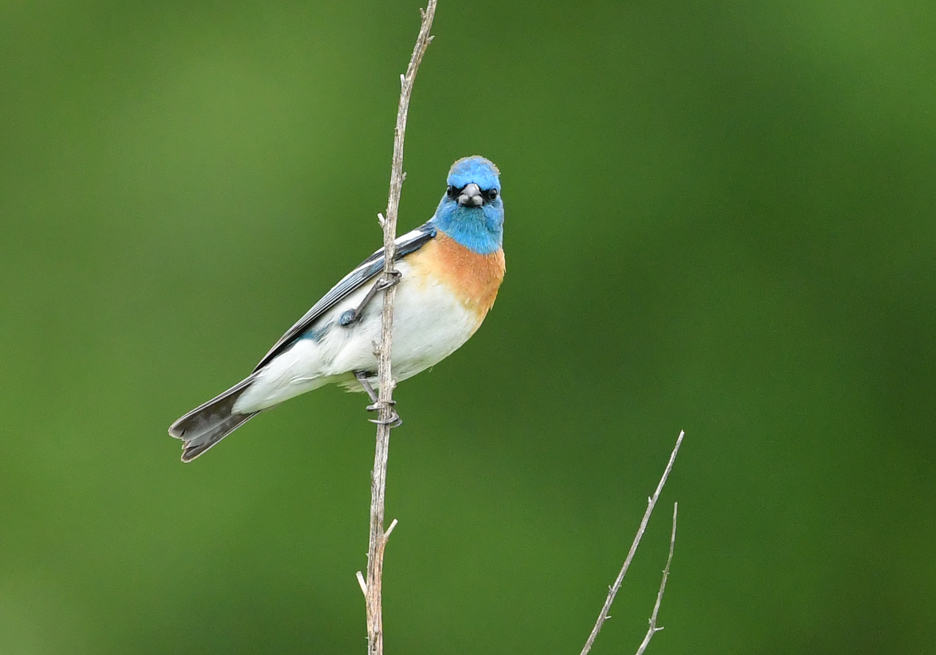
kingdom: Animalia
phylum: Chordata
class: Aves
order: Passeriformes
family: Cardinalidae
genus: Passerina
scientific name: Passerina amoena
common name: Lazuli bunting
